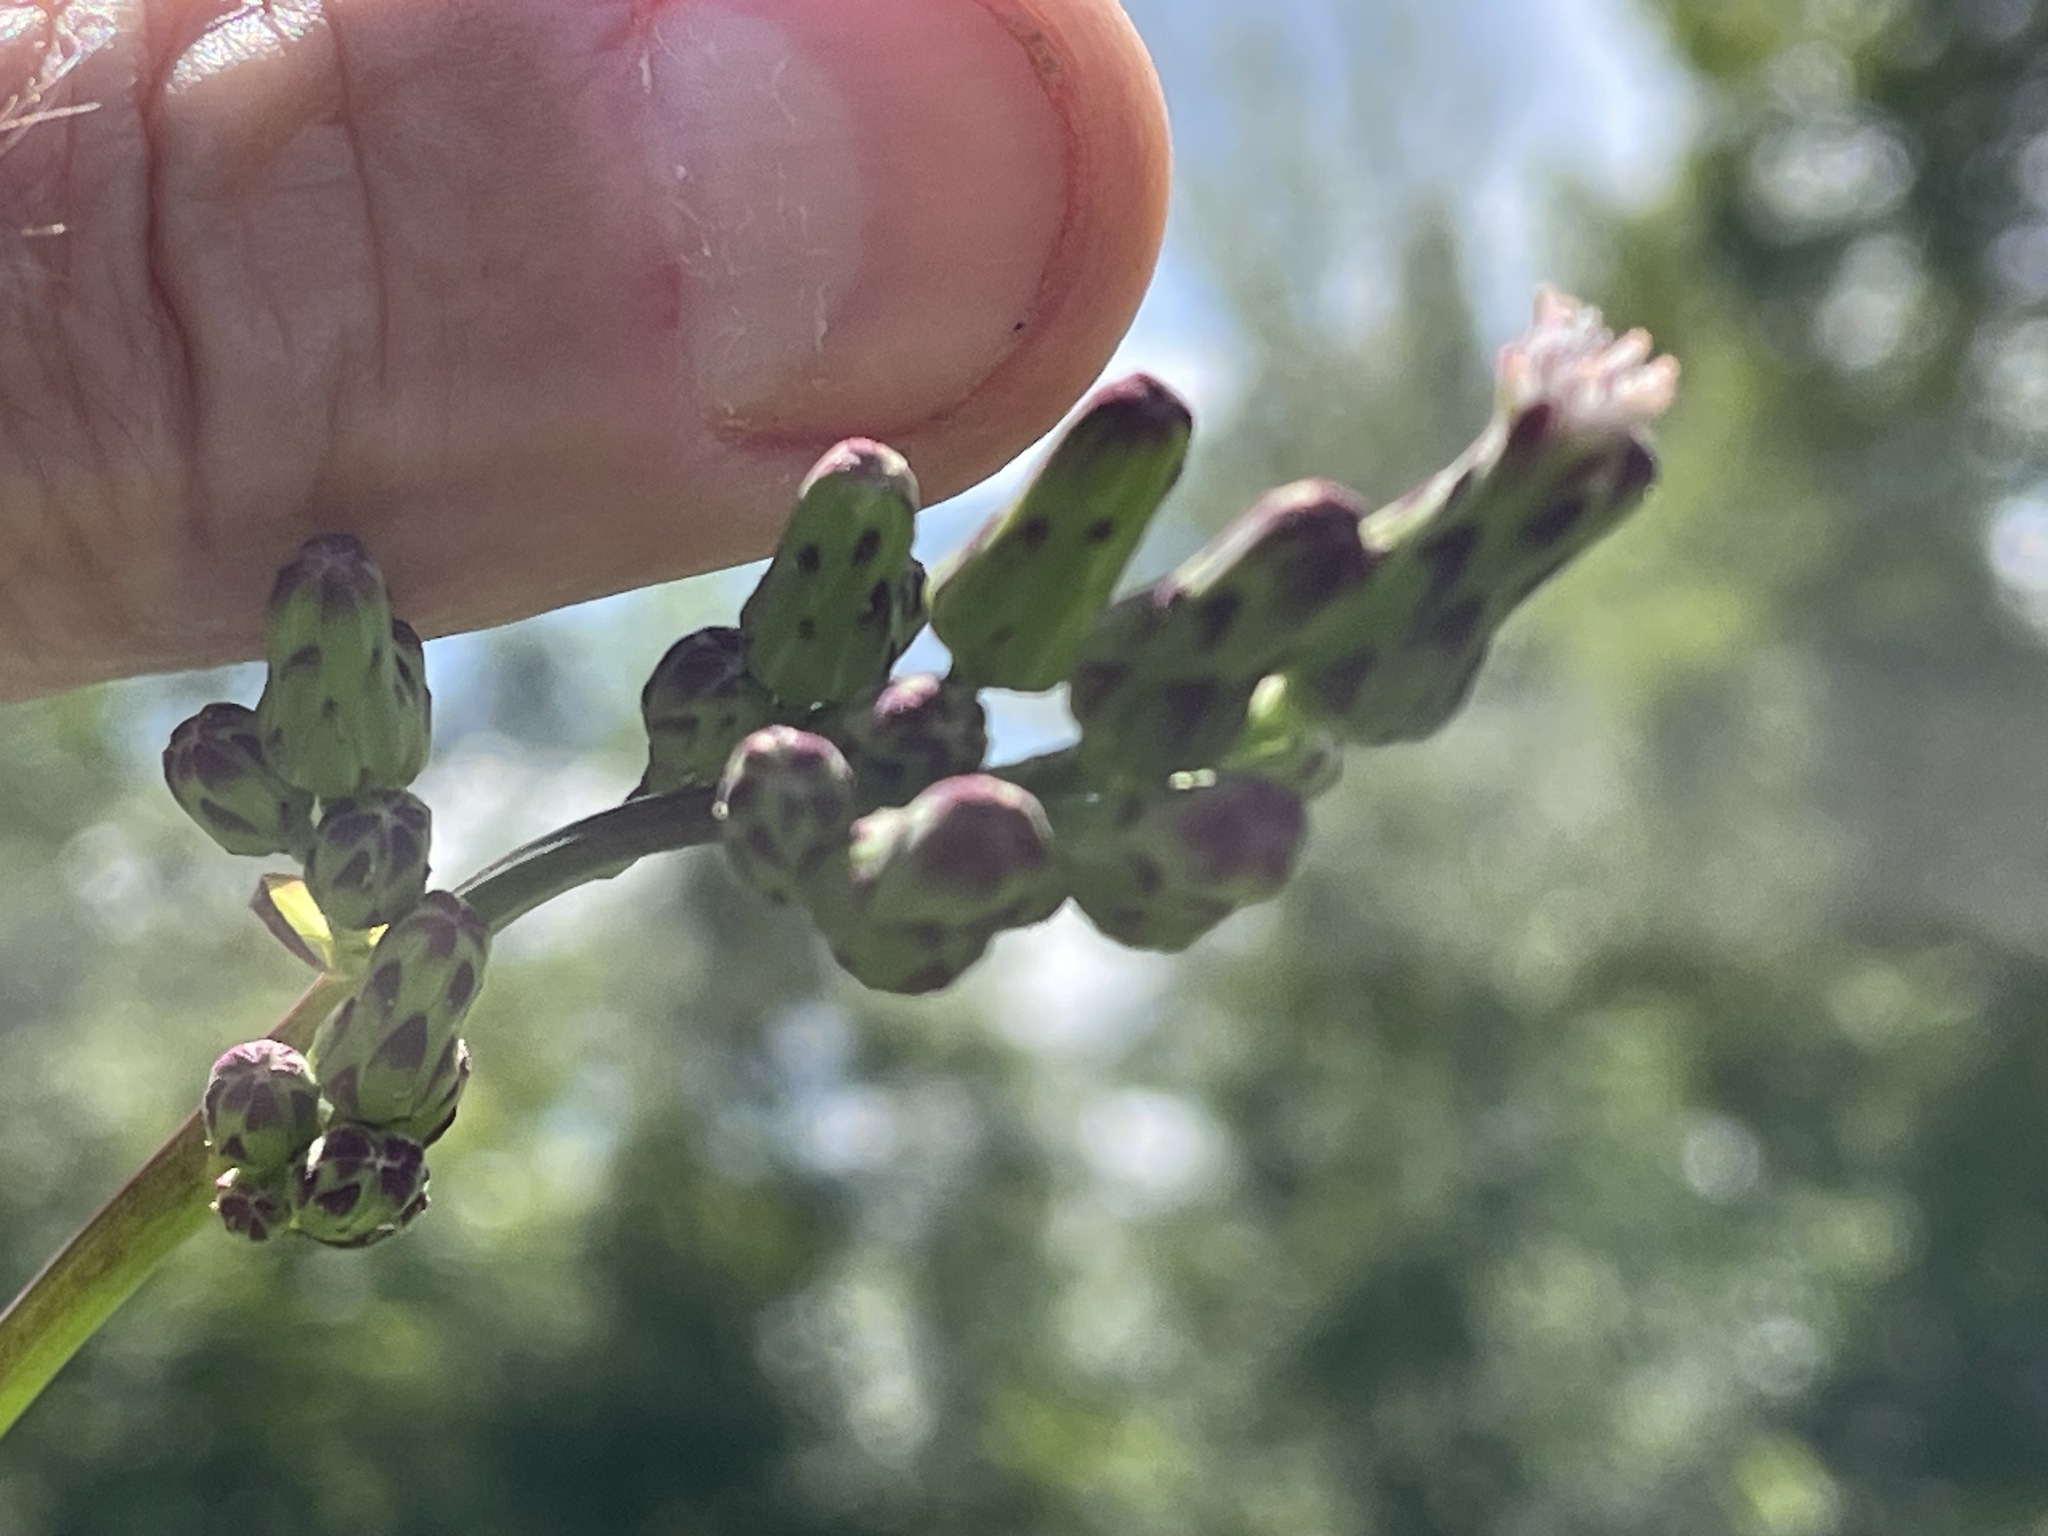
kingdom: Plantae
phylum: Tracheophyta
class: Magnoliopsida
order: Asterales
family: Asteraceae
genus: Lactuca
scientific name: Lactuca biennis
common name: Blue wood lettuce
